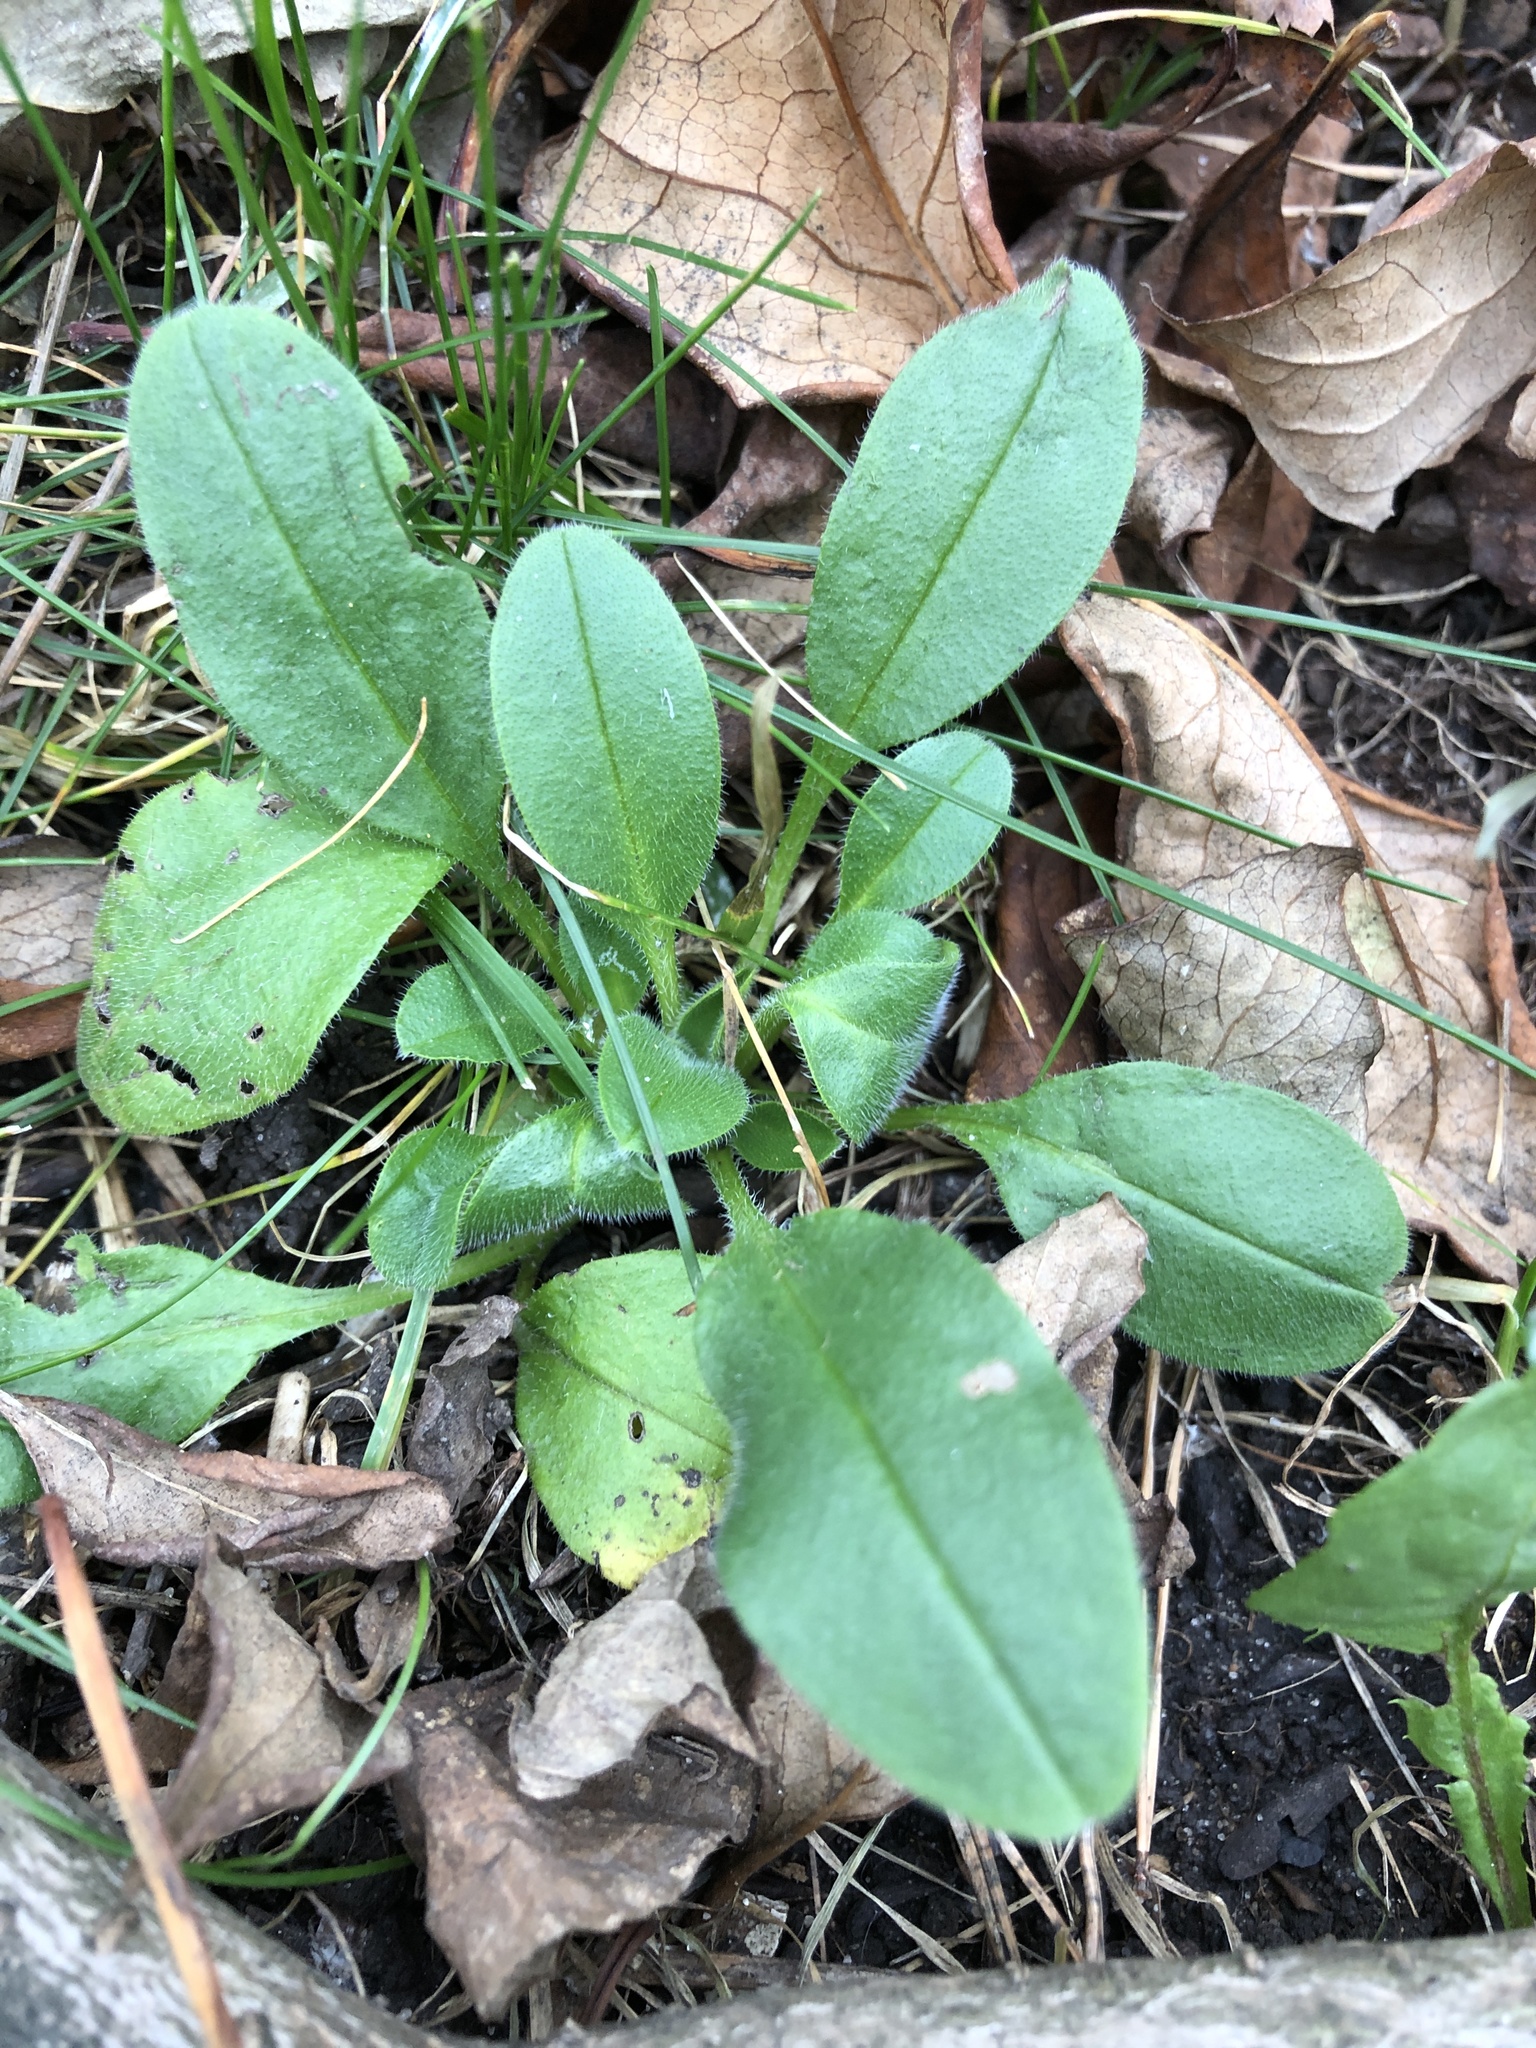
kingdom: Plantae
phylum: Tracheophyta
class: Magnoliopsida
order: Boraginales
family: Boraginaceae
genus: Myosotis
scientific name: Myosotis sylvatica
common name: Wood forget-me-not
